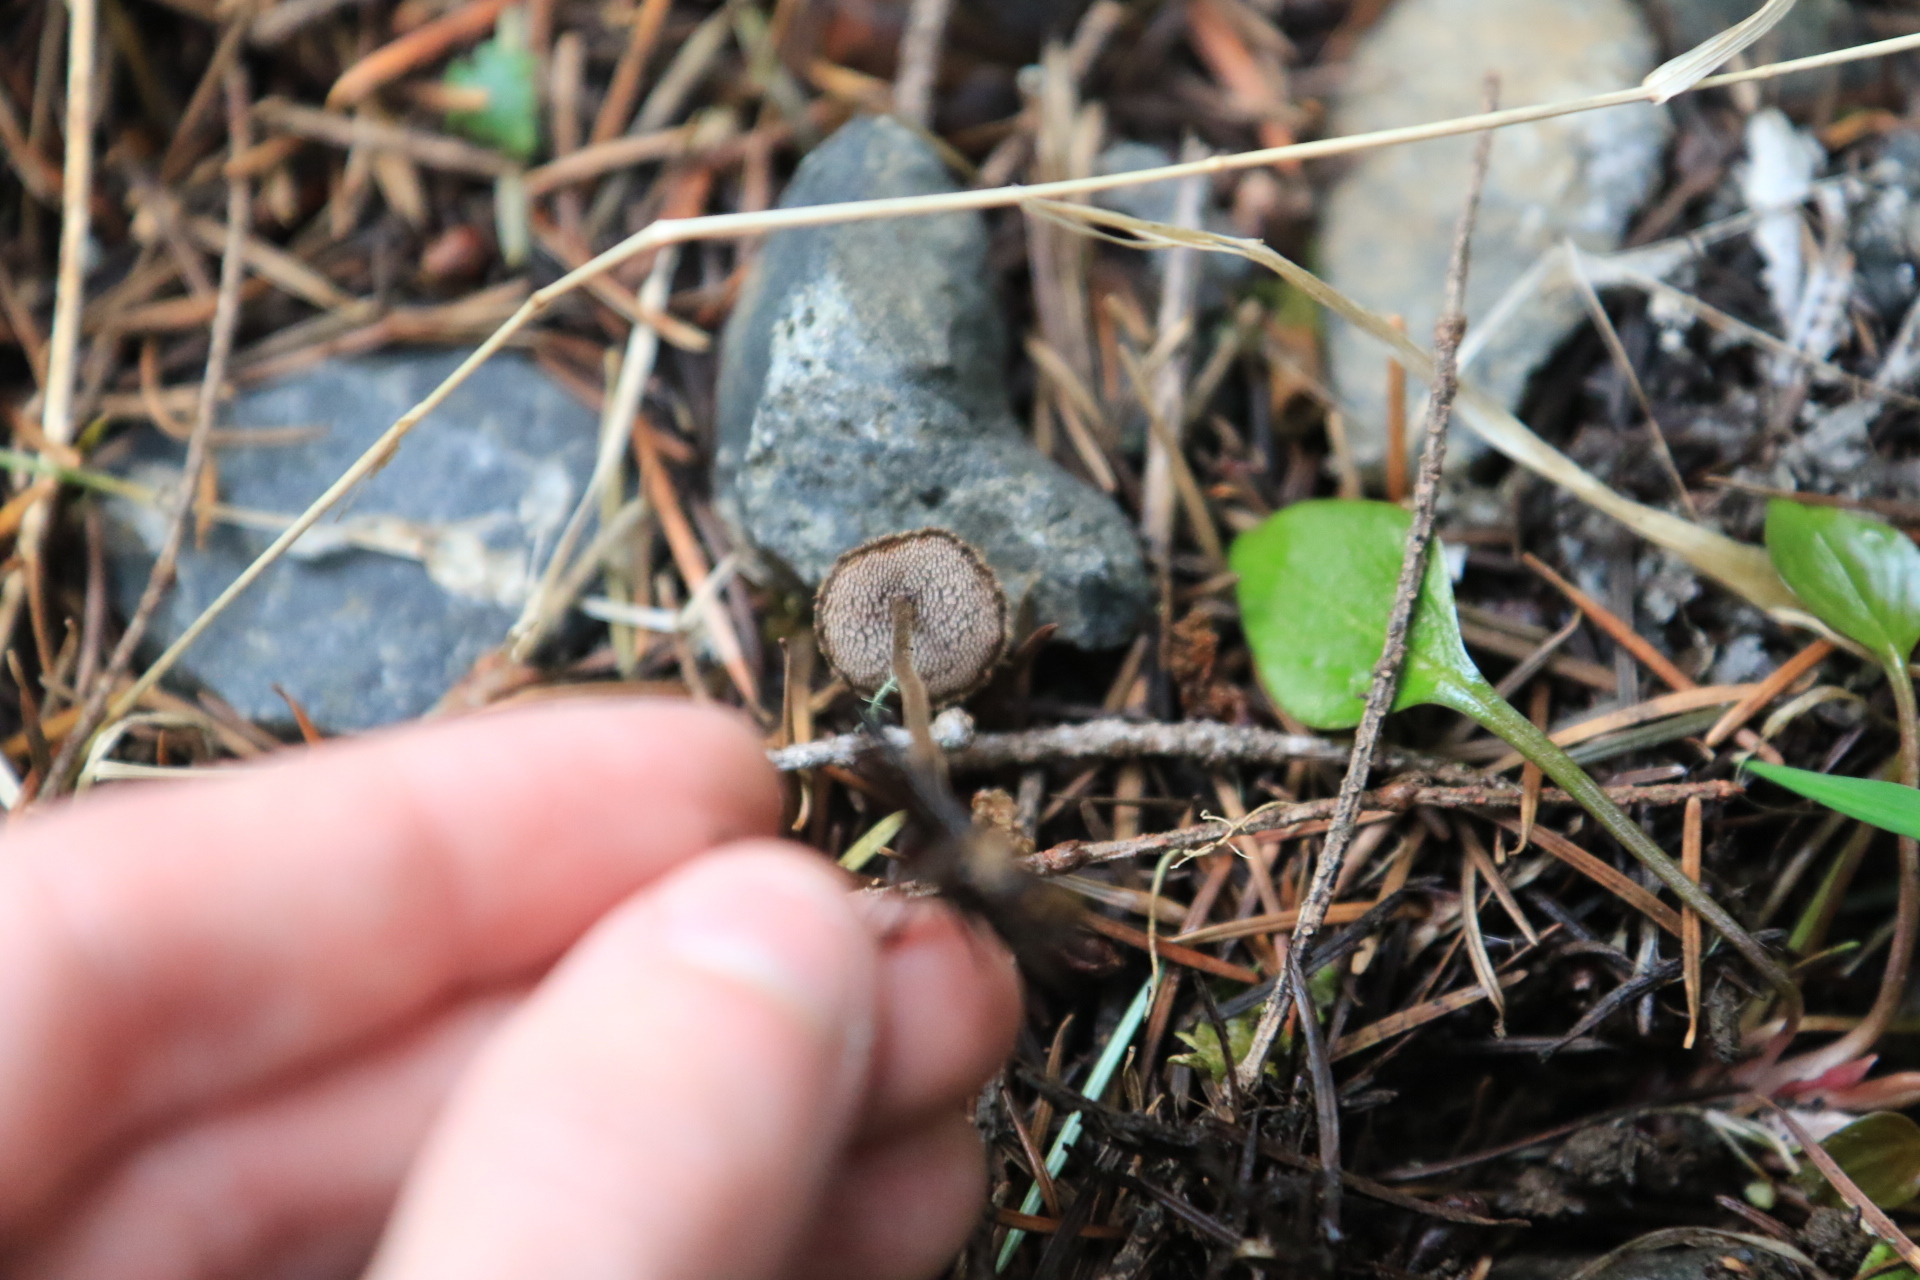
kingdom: Fungi
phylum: Basidiomycota
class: Agaricomycetes
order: Russulales
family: Auriscalpiaceae
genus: Auriscalpium
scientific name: Auriscalpium vulgare
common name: Earpick fungus
